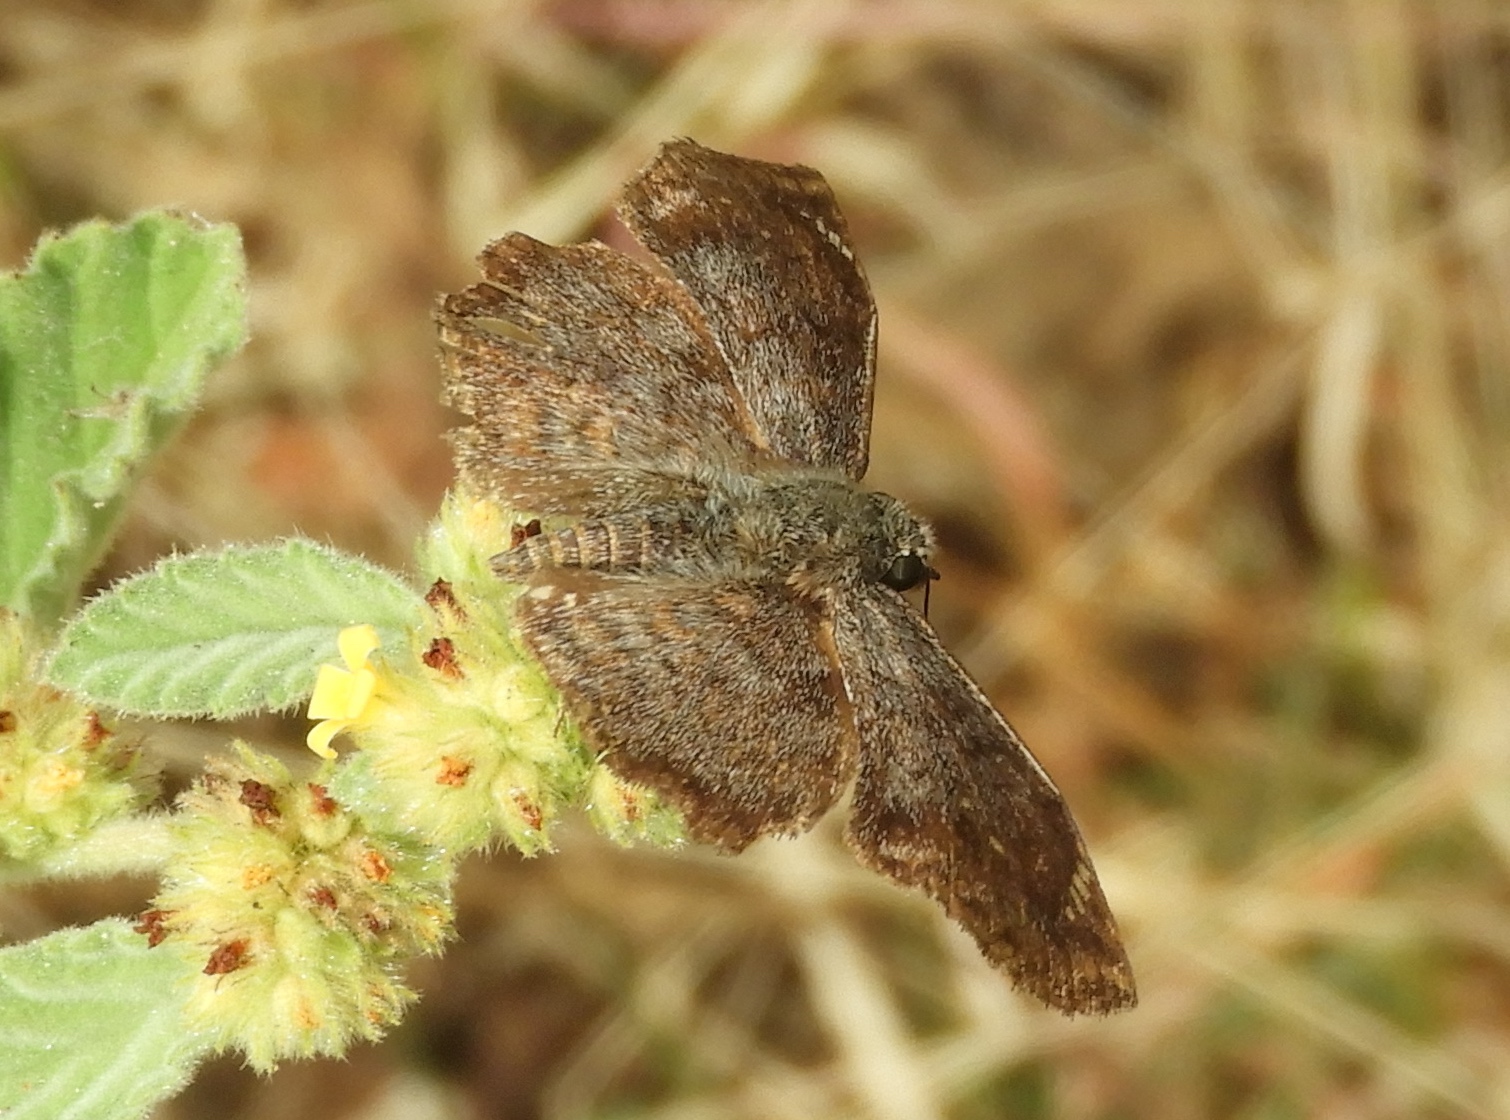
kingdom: Animalia
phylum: Arthropoda
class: Insecta
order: Lepidoptera
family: Hesperiidae
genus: Antigonus
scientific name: Antigonus erosus
